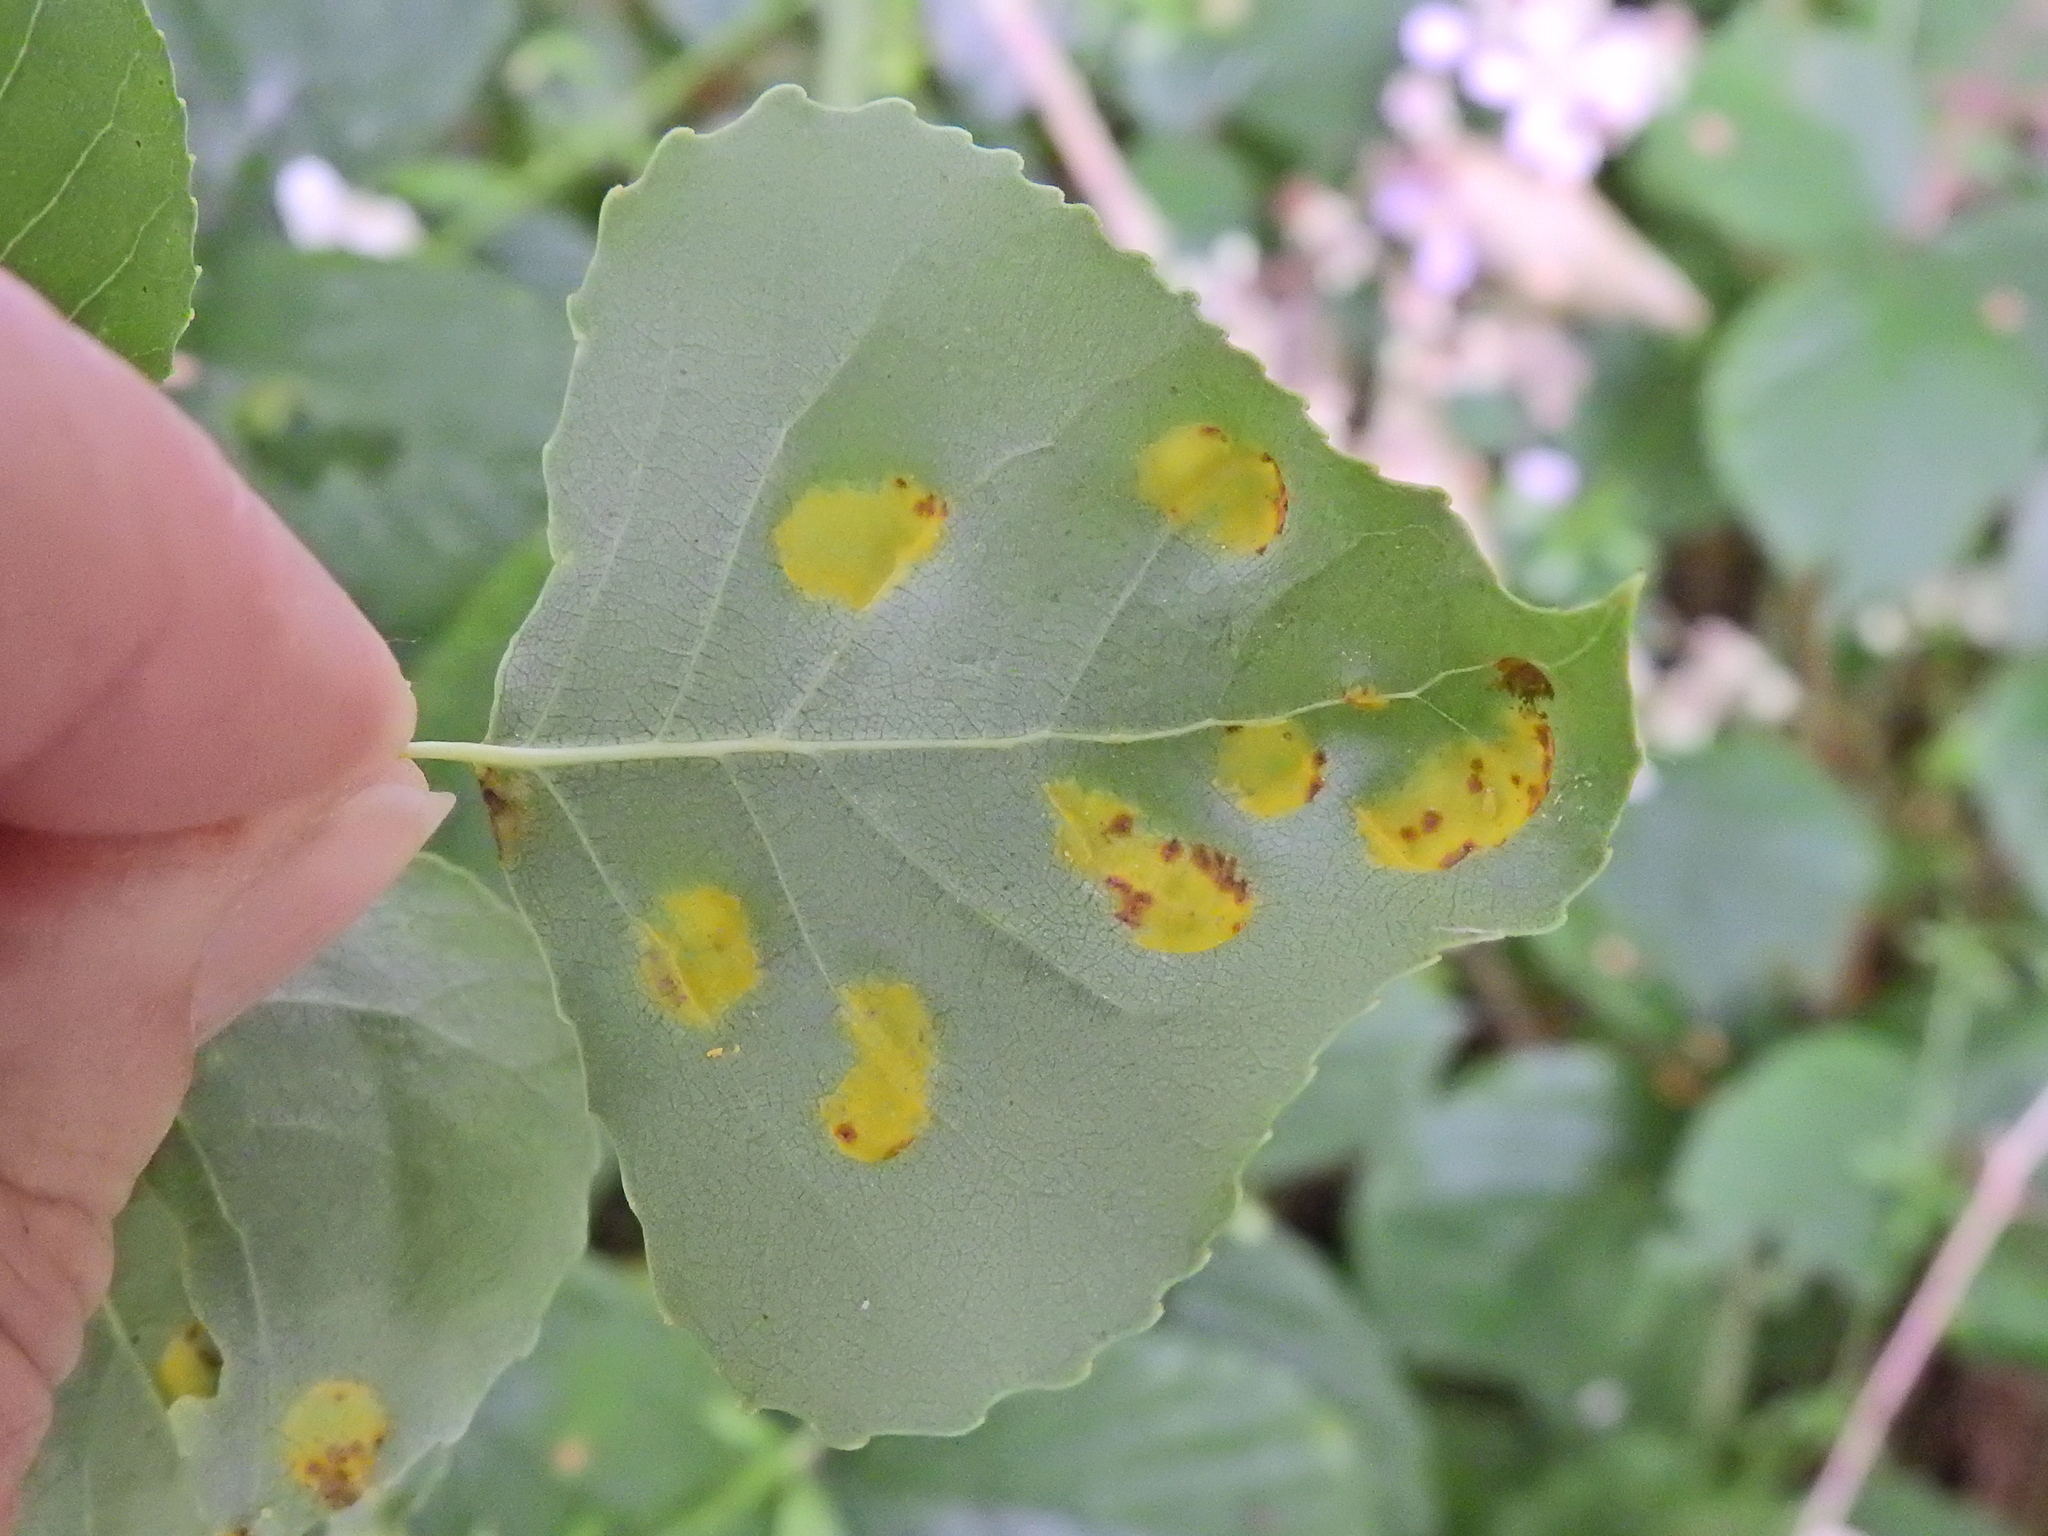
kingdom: Fungi
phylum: Ascomycota
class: Taphrinomycetes
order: Taphrinales
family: Taphrinaceae
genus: Taphrina
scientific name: Taphrina populina
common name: Poplar leaf curl
